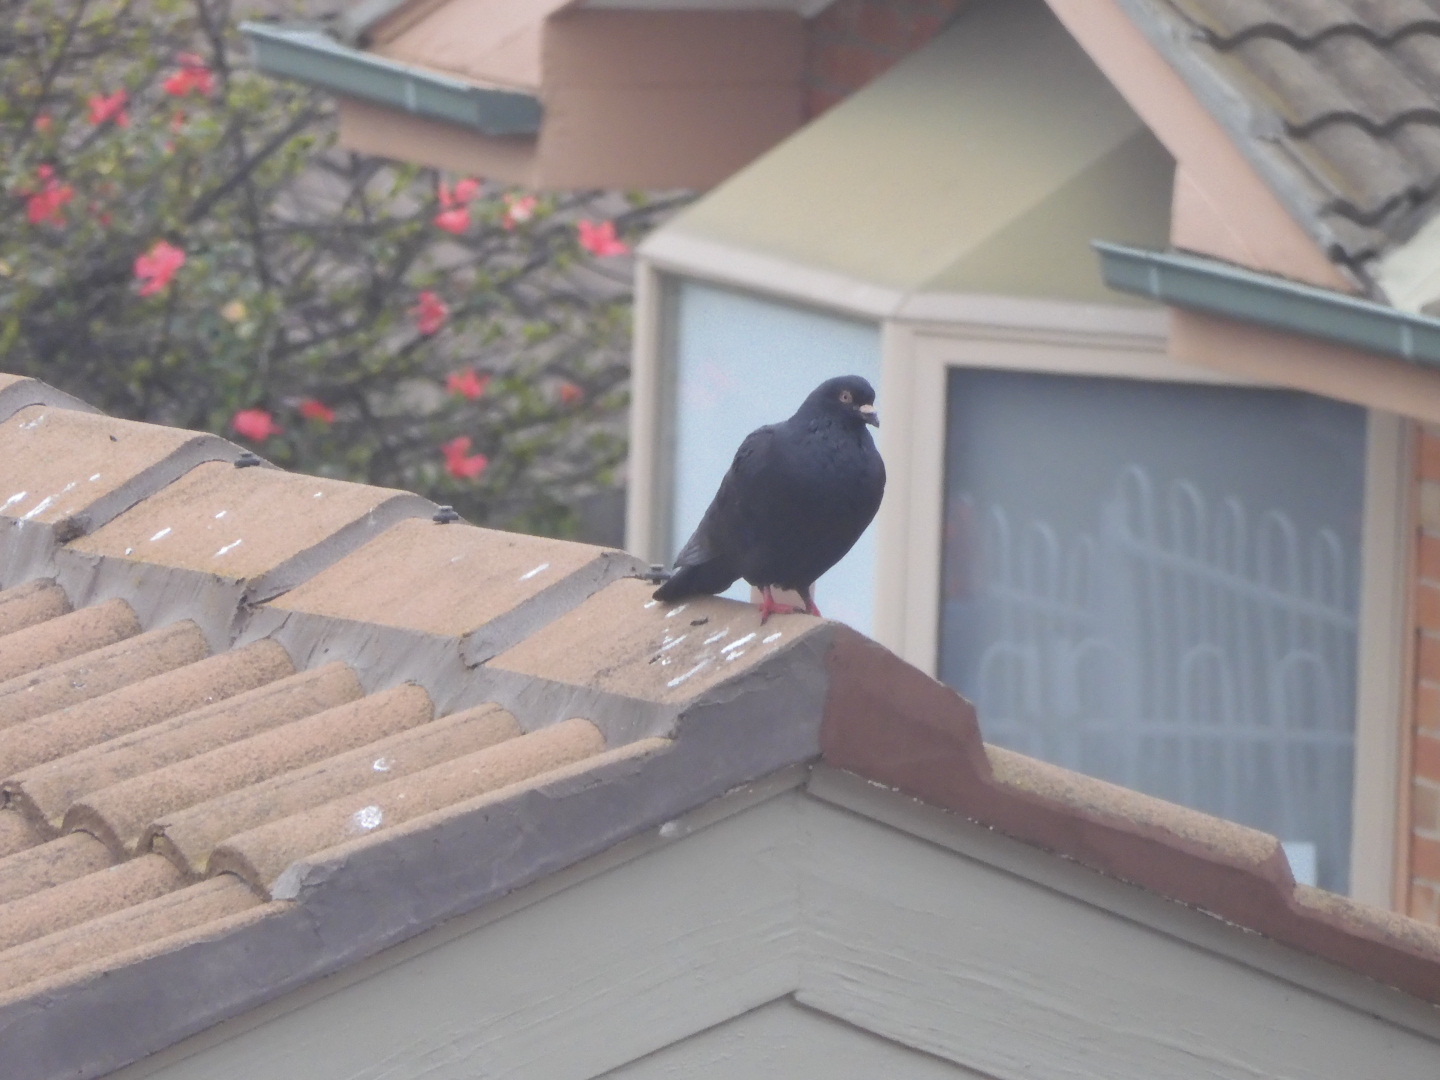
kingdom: Animalia
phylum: Chordata
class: Aves
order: Columbiformes
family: Columbidae
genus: Columba
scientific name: Columba livia
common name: Rock pigeon
